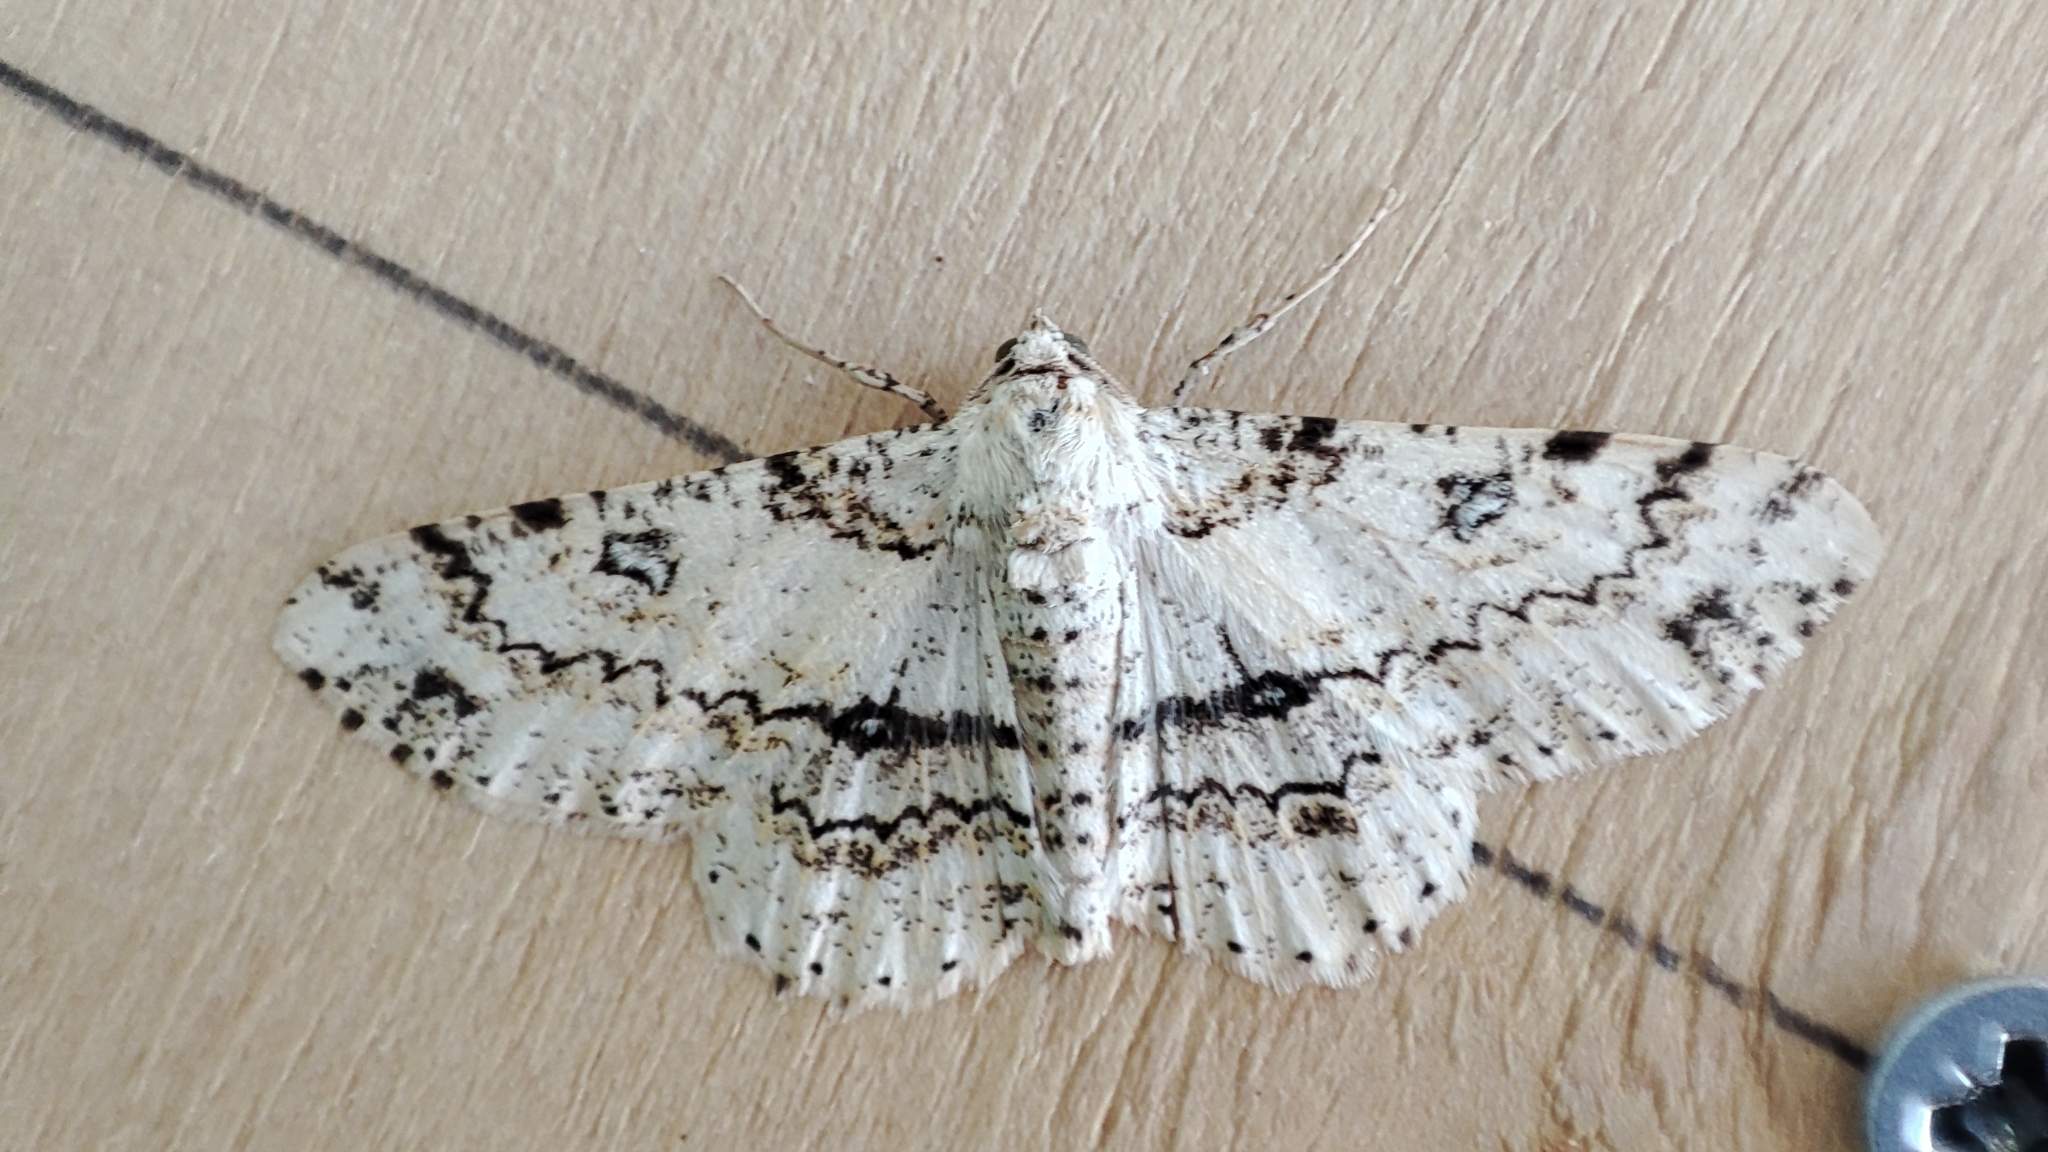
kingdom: Animalia
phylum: Arthropoda
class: Insecta
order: Lepidoptera
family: Geometridae
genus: Ascotis
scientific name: Ascotis selenaria
